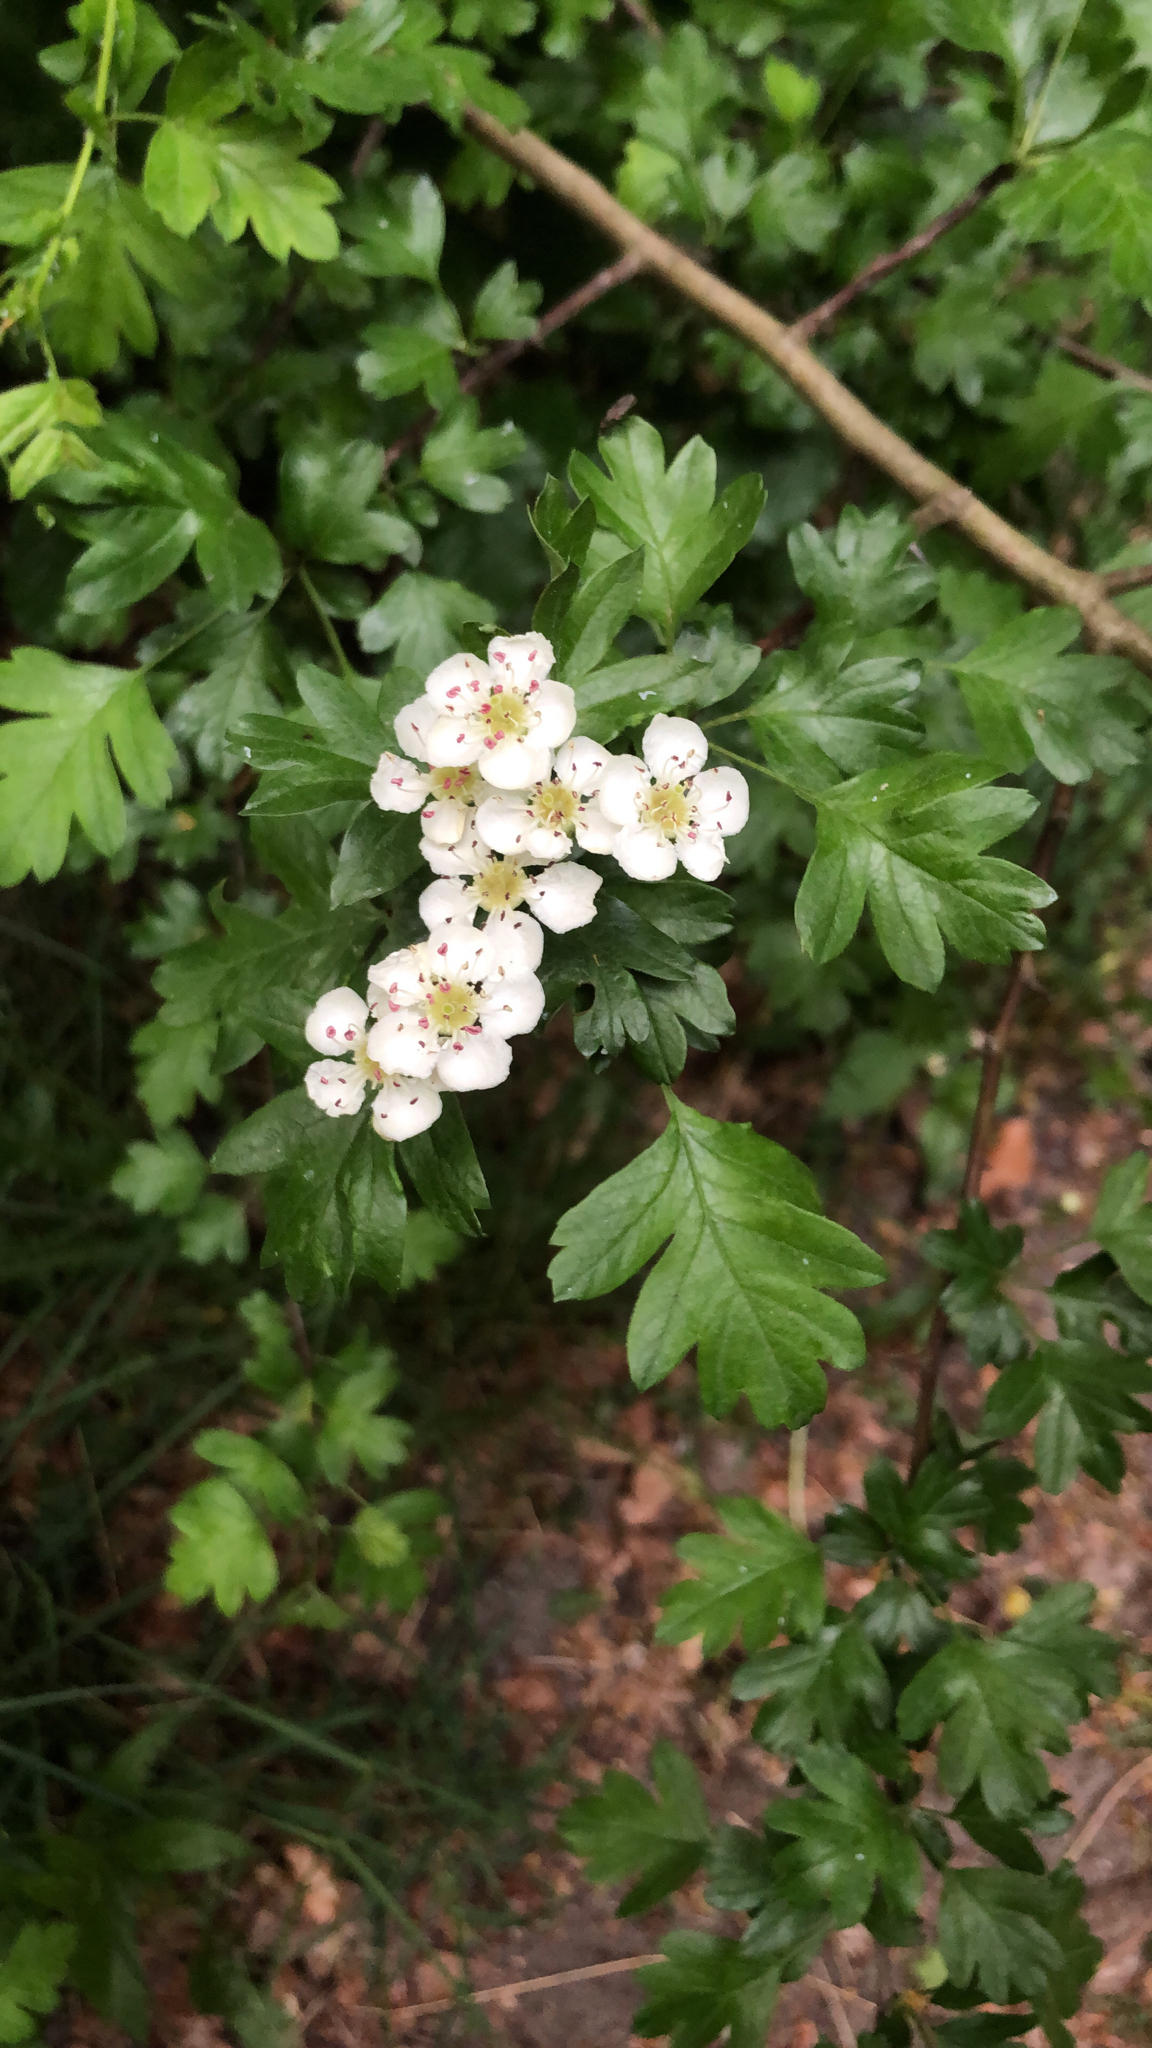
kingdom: Plantae
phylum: Tracheophyta
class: Magnoliopsida
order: Rosales
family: Rosaceae
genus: Crataegus
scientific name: Crataegus monogyna
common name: Hawthorn
